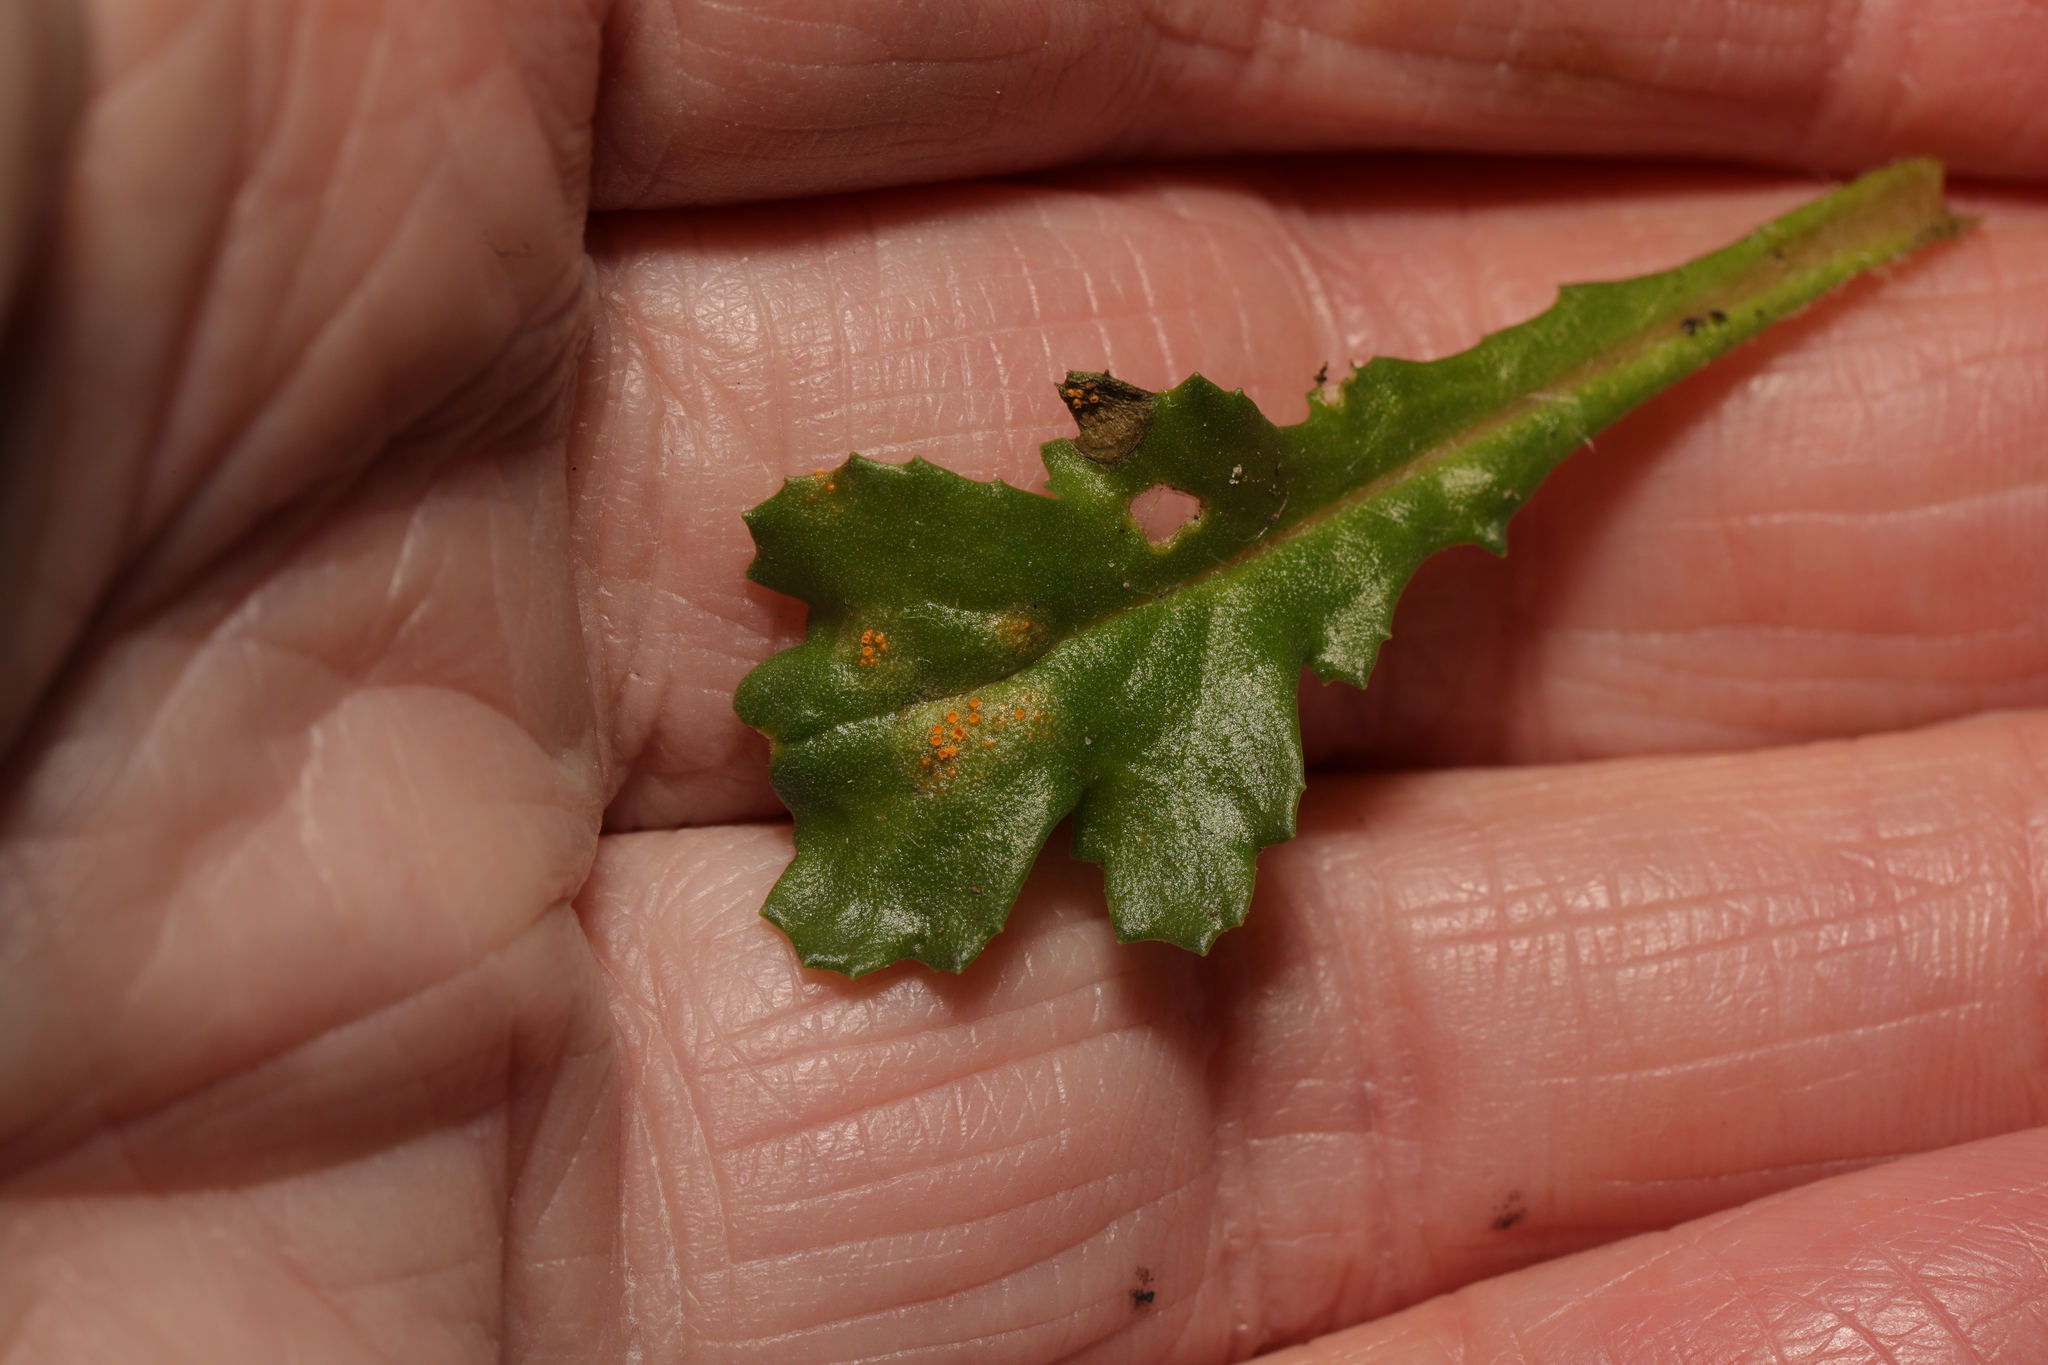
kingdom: Fungi
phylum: Basidiomycota
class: Pucciniomycetes
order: Pucciniales
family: Pucciniaceae
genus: Puccinia
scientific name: Puccinia lagenophorae
